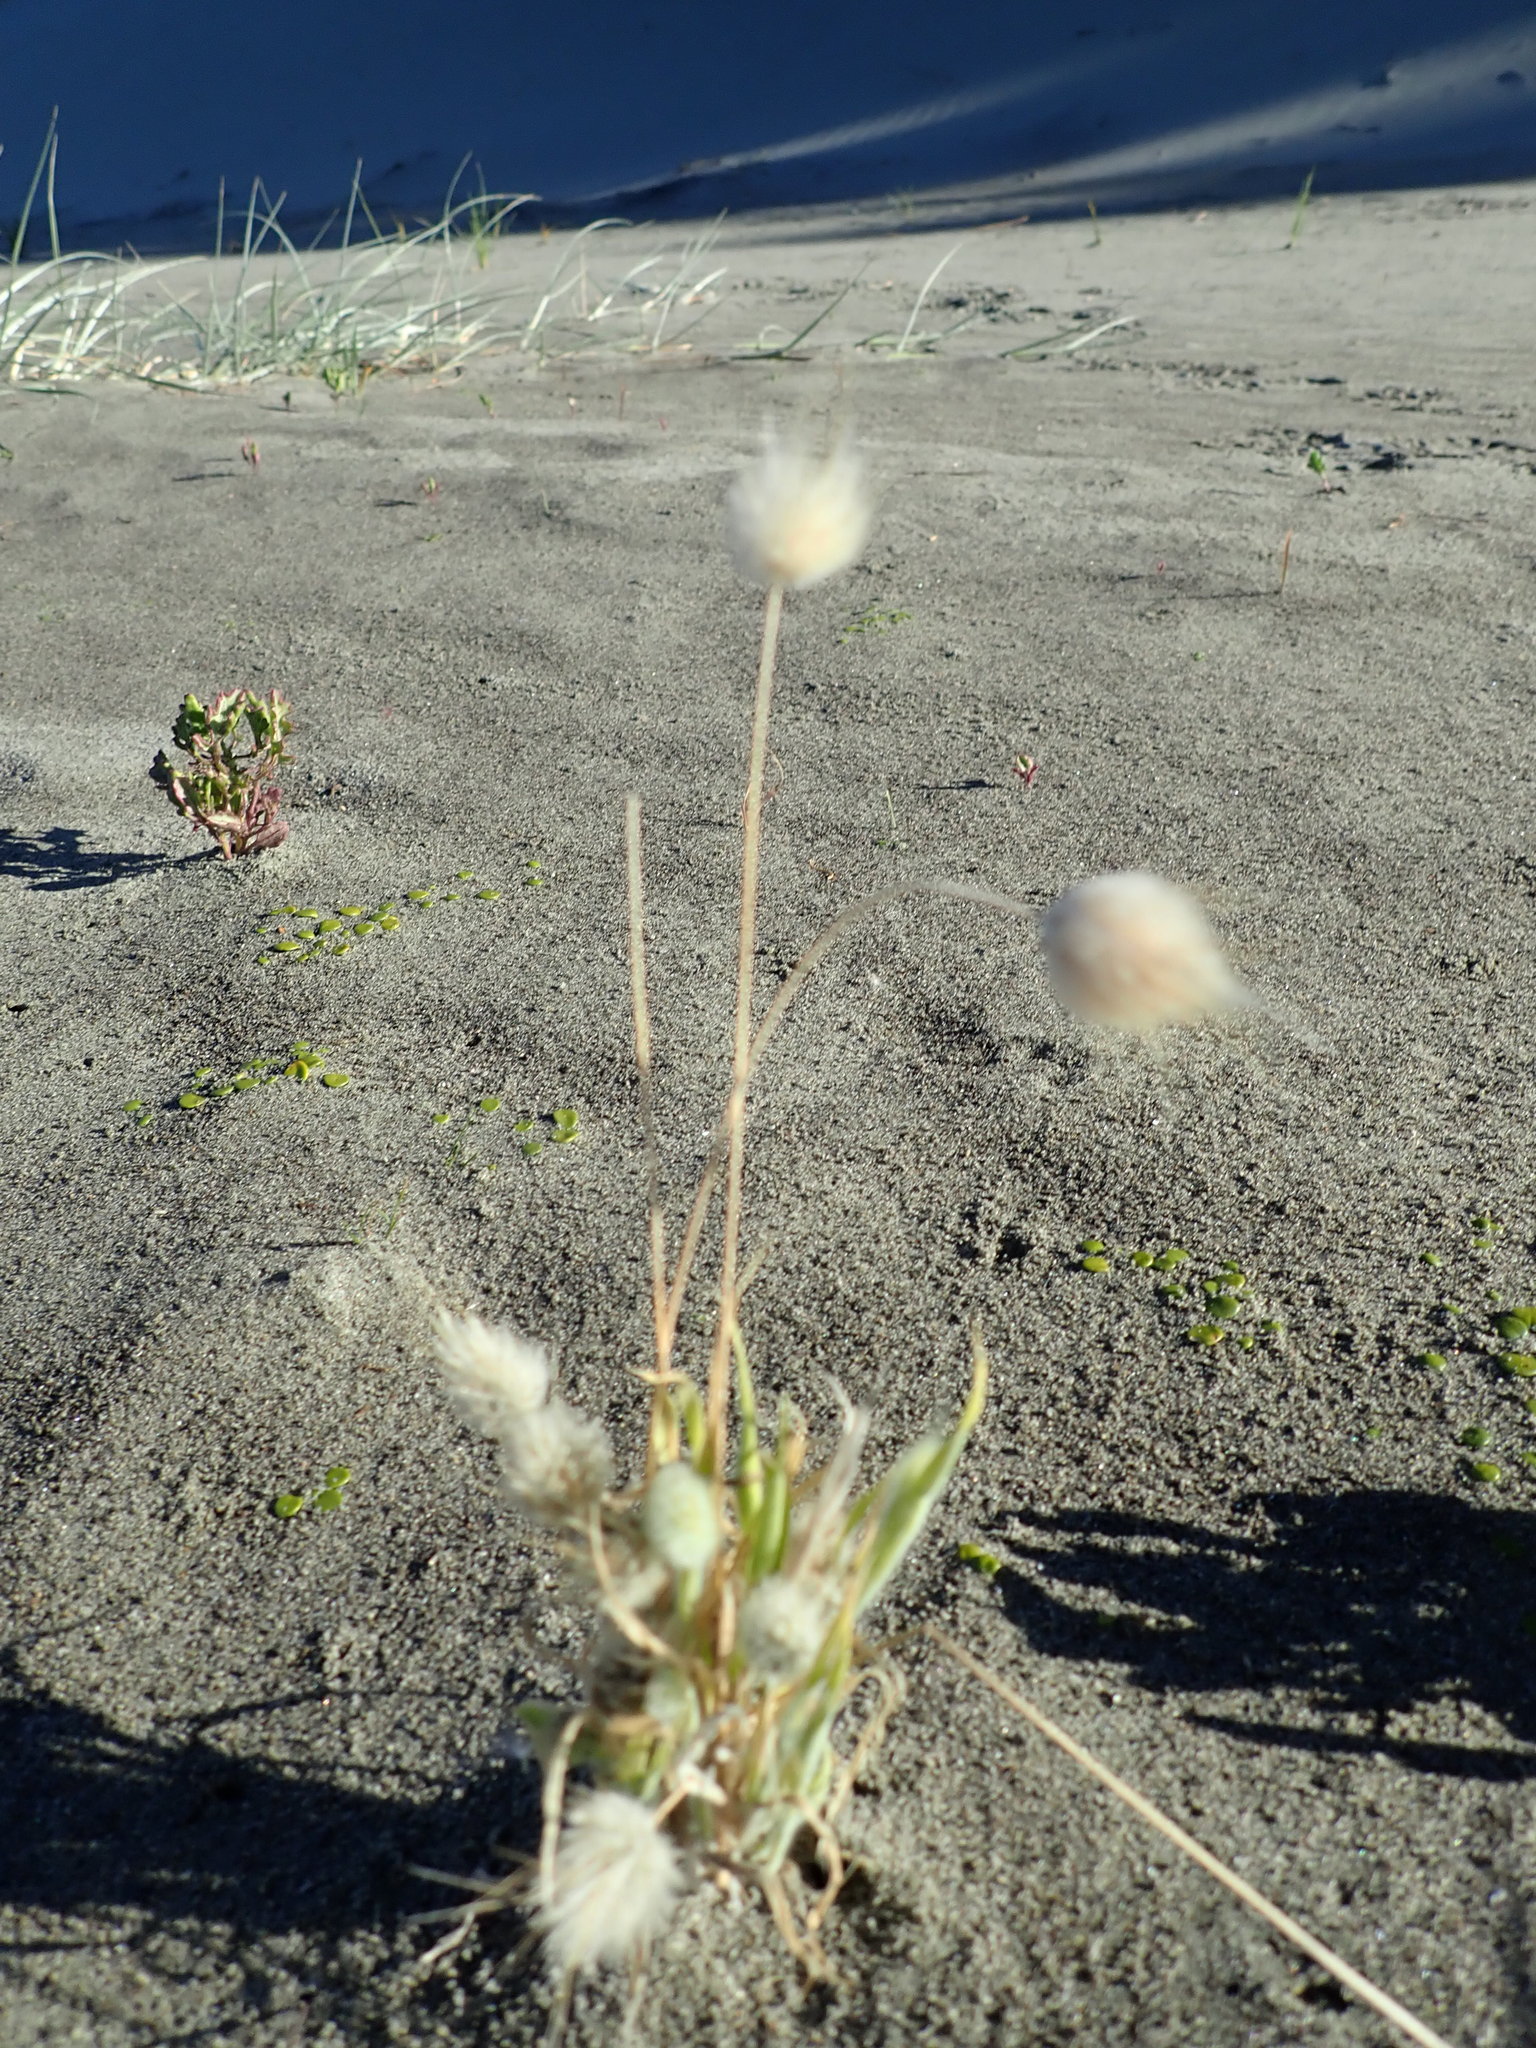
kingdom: Plantae
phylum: Tracheophyta
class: Liliopsida
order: Poales
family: Poaceae
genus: Lagurus
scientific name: Lagurus ovatus
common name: Hare's-tail
